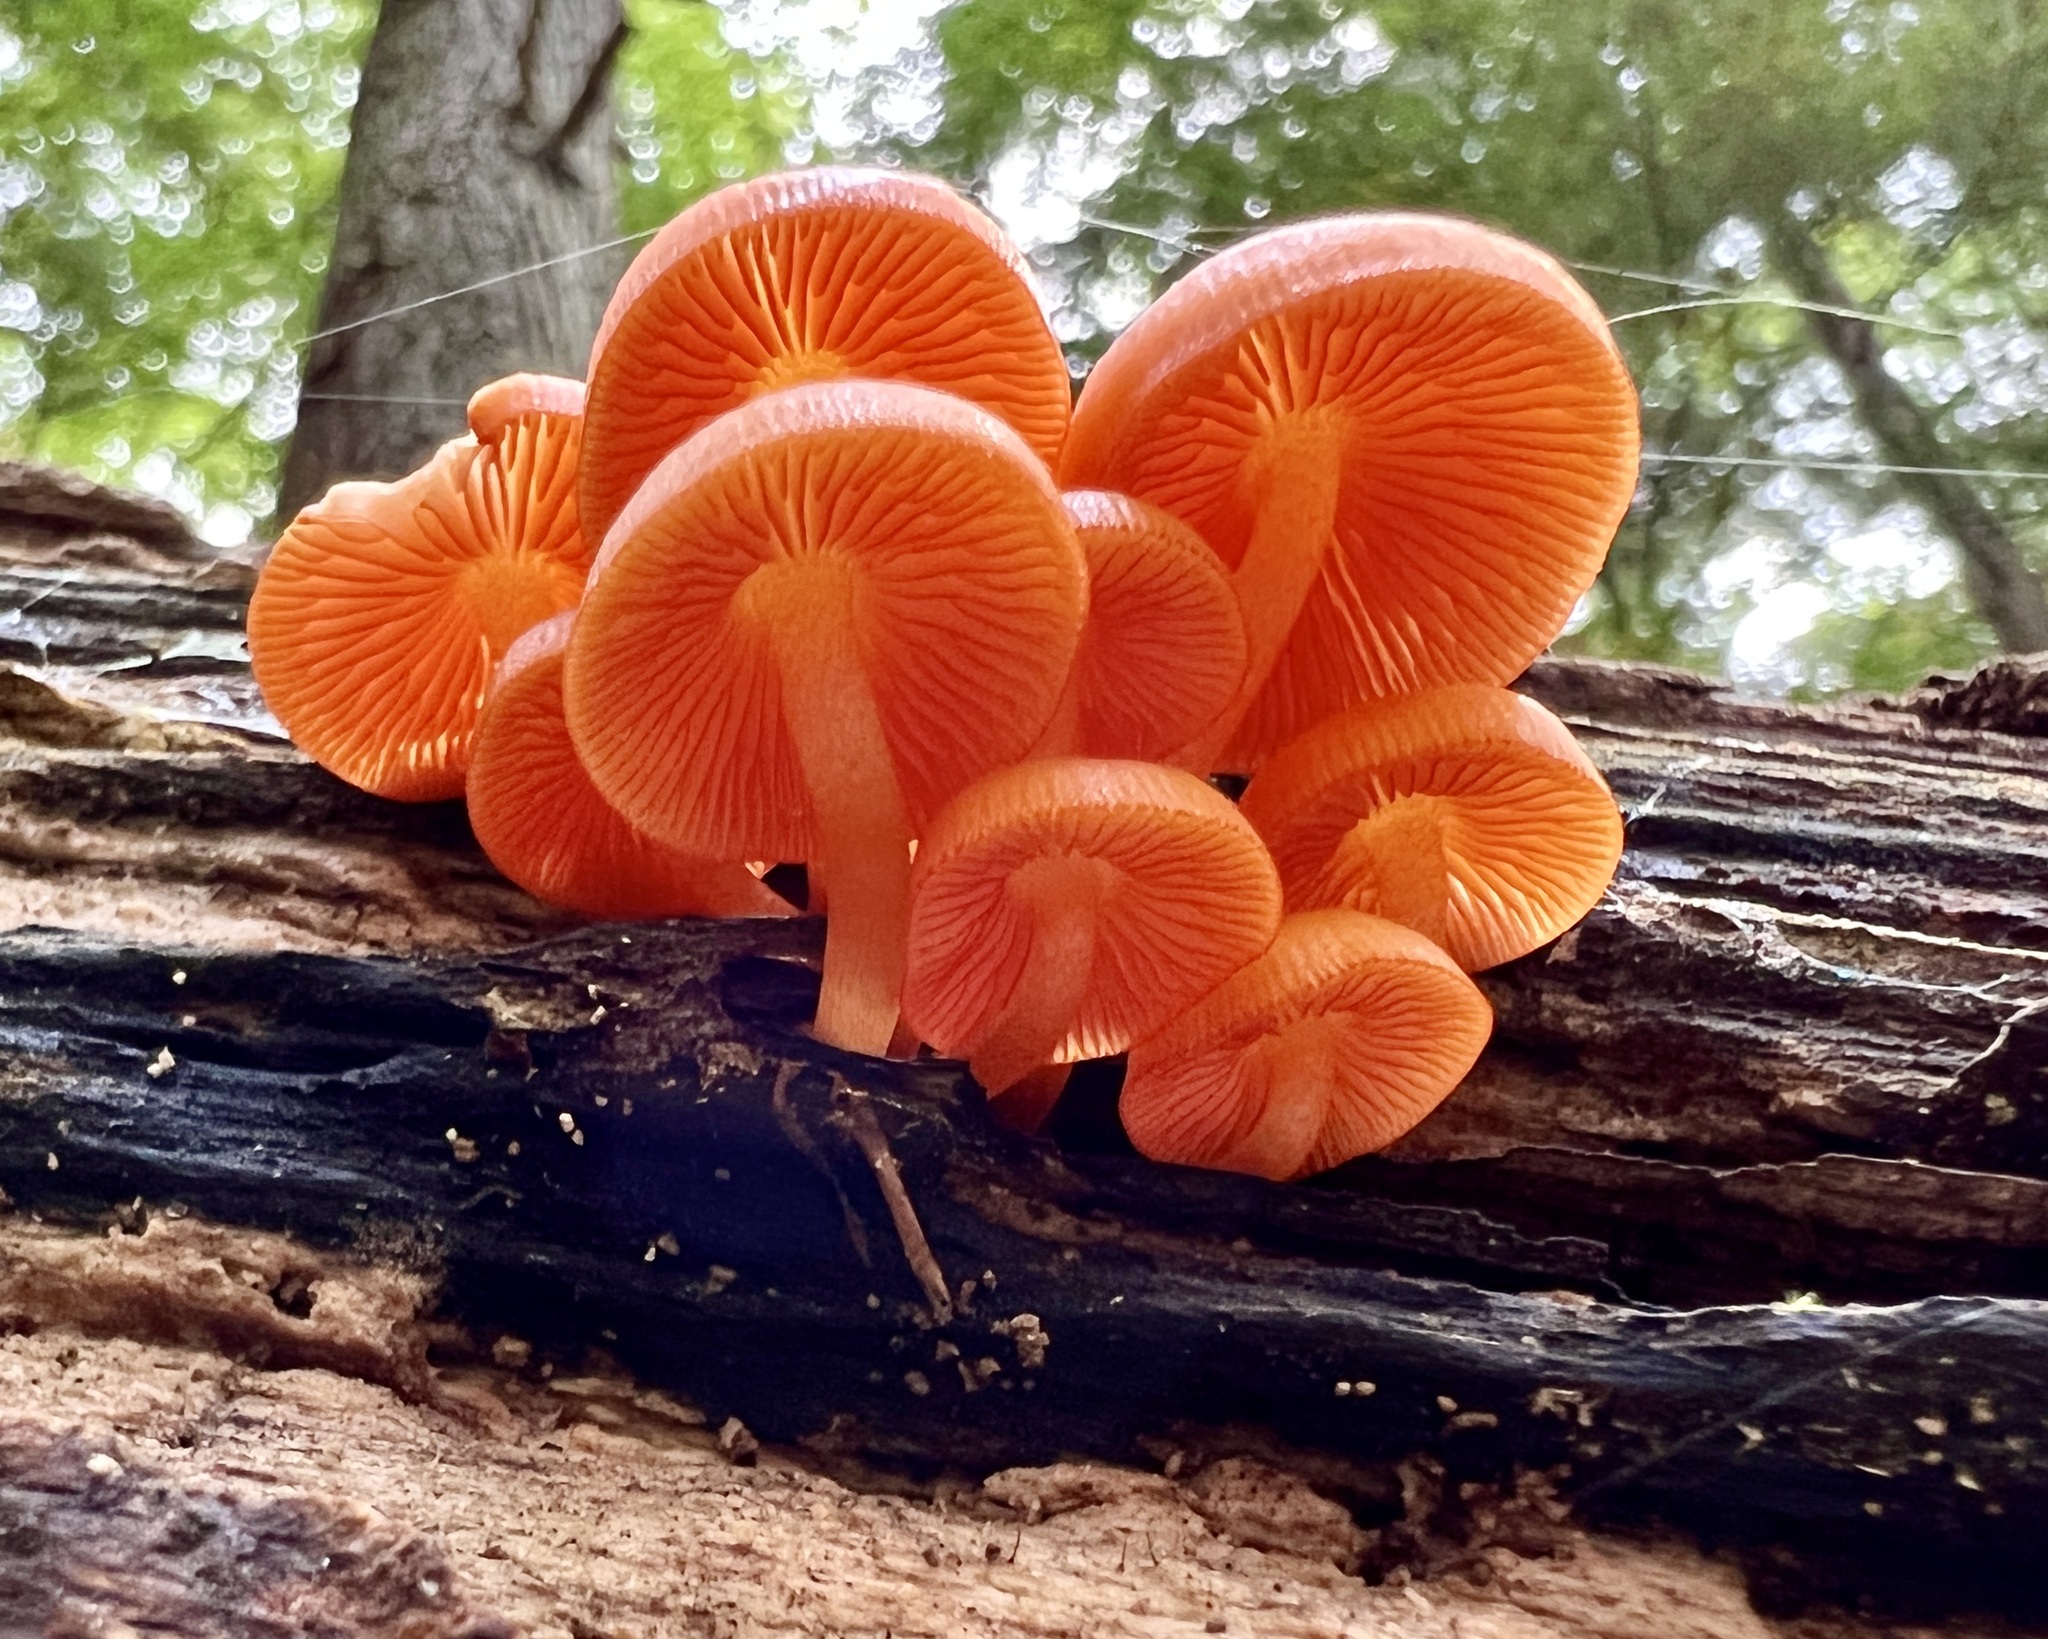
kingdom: Fungi
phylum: Basidiomycota
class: Agaricomycetes
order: Agaricales
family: Mycenaceae
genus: Mycena
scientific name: Mycena leaiana
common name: Orange mycena
